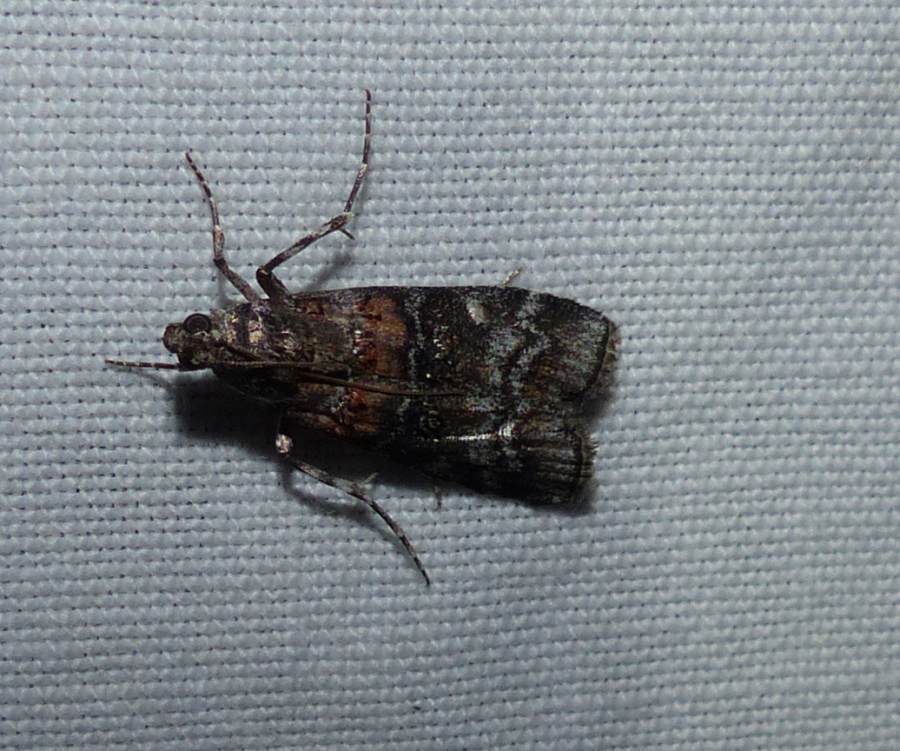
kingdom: Animalia
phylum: Arthropoda
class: Insecta
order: Lepidoptera
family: Pyralidae
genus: Dioryctria
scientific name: Dioryctria zimmermani
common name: Zimmerman pine moth
